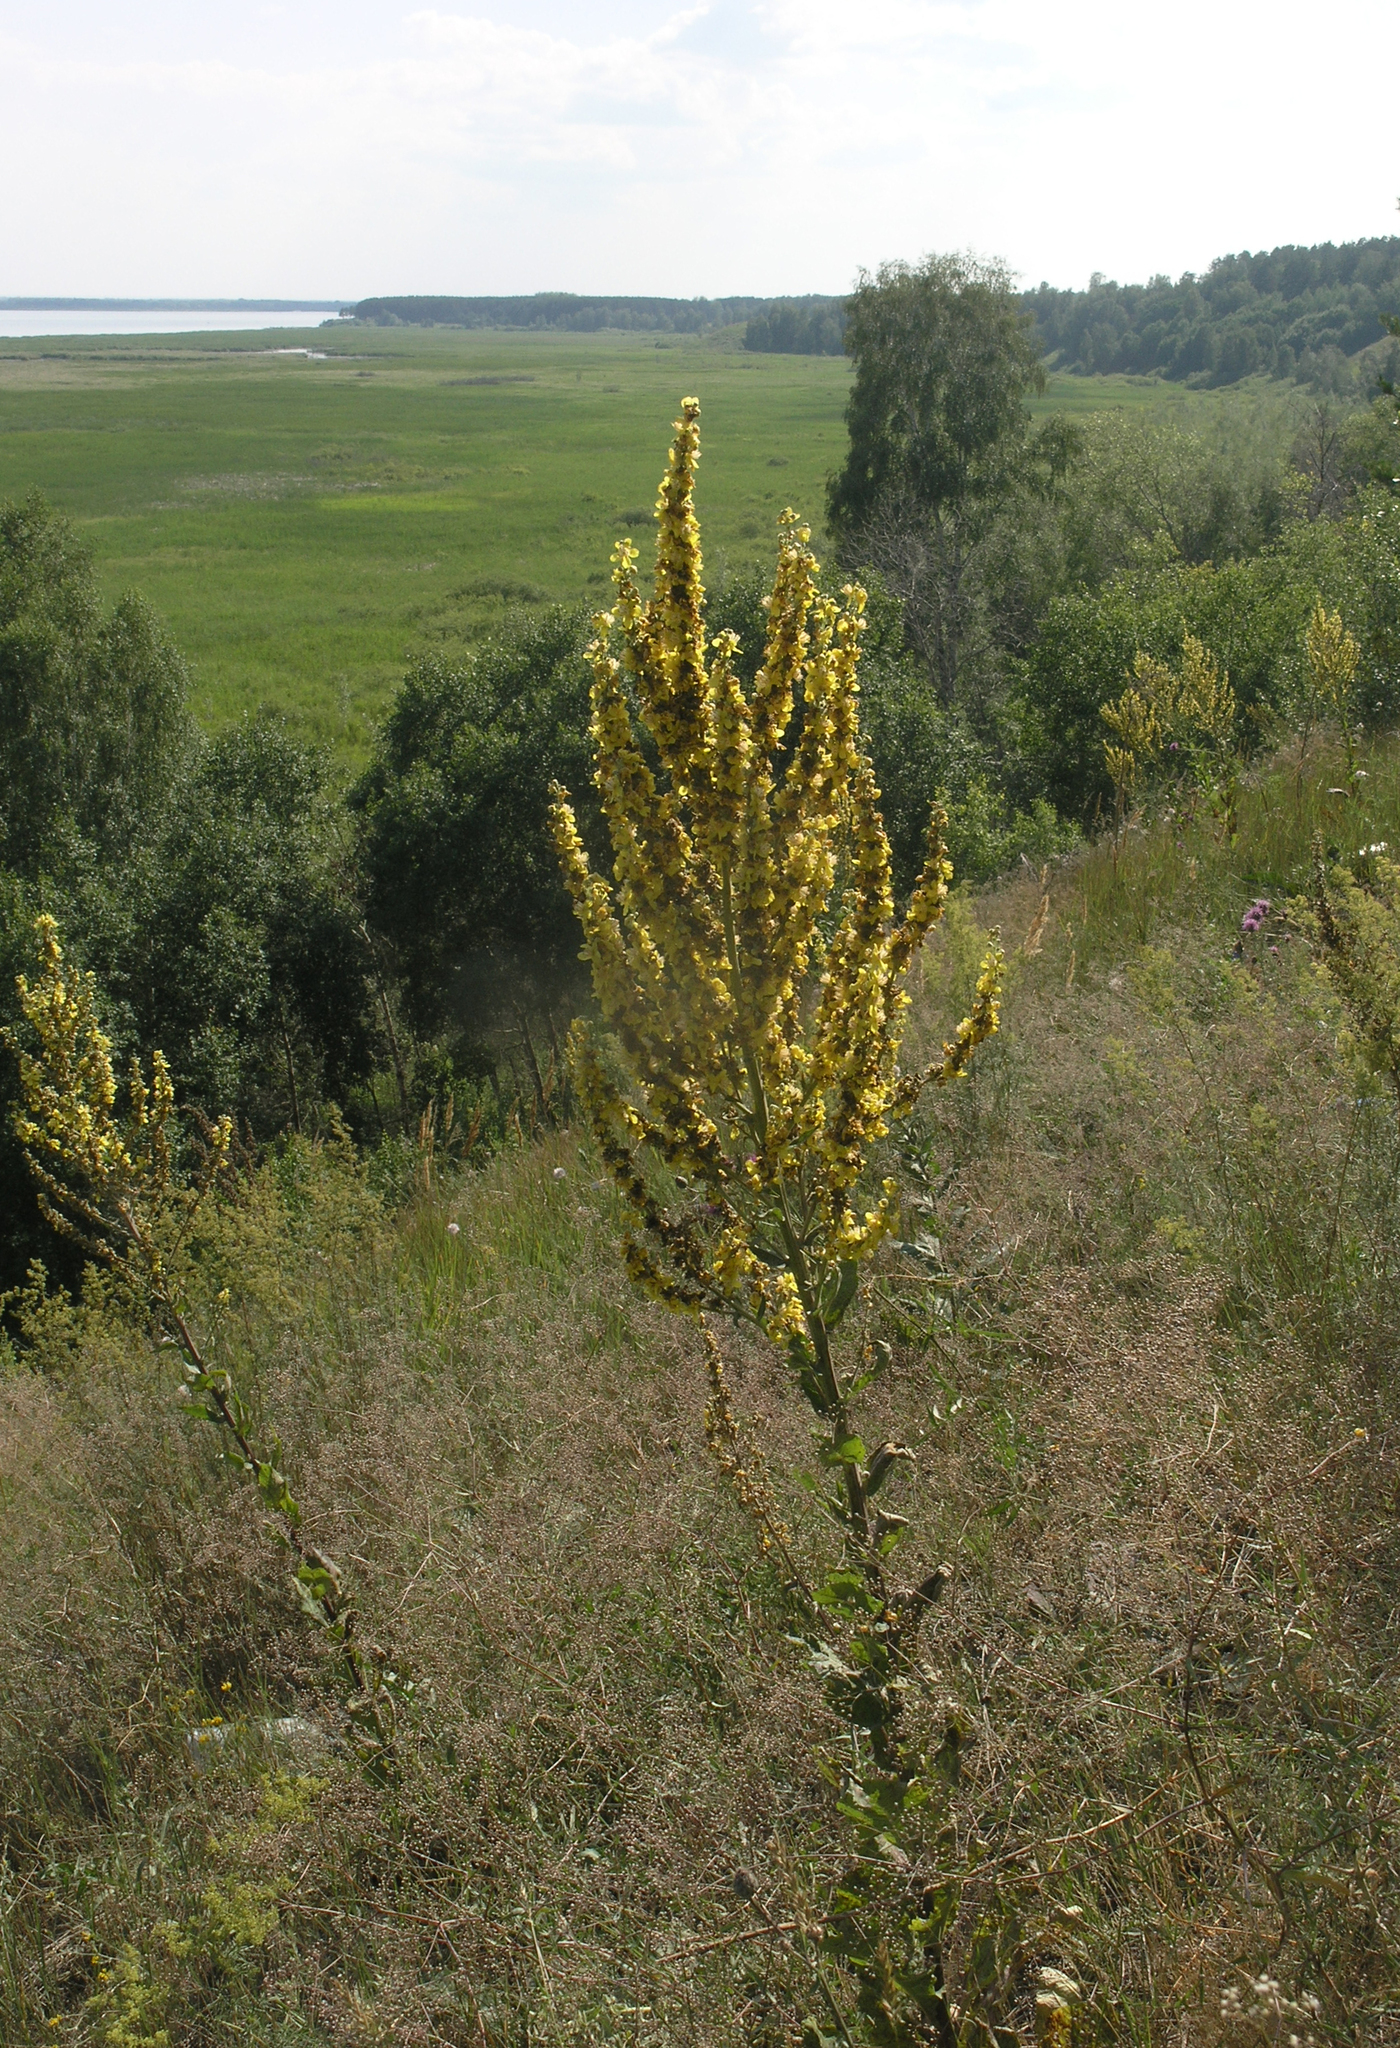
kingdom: Plantae
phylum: Tracheophyta
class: Magnoliopsida
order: Lamiales
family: Scrophulariaceae
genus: Verbascum
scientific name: Verbascum lychnitis
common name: White mullein
